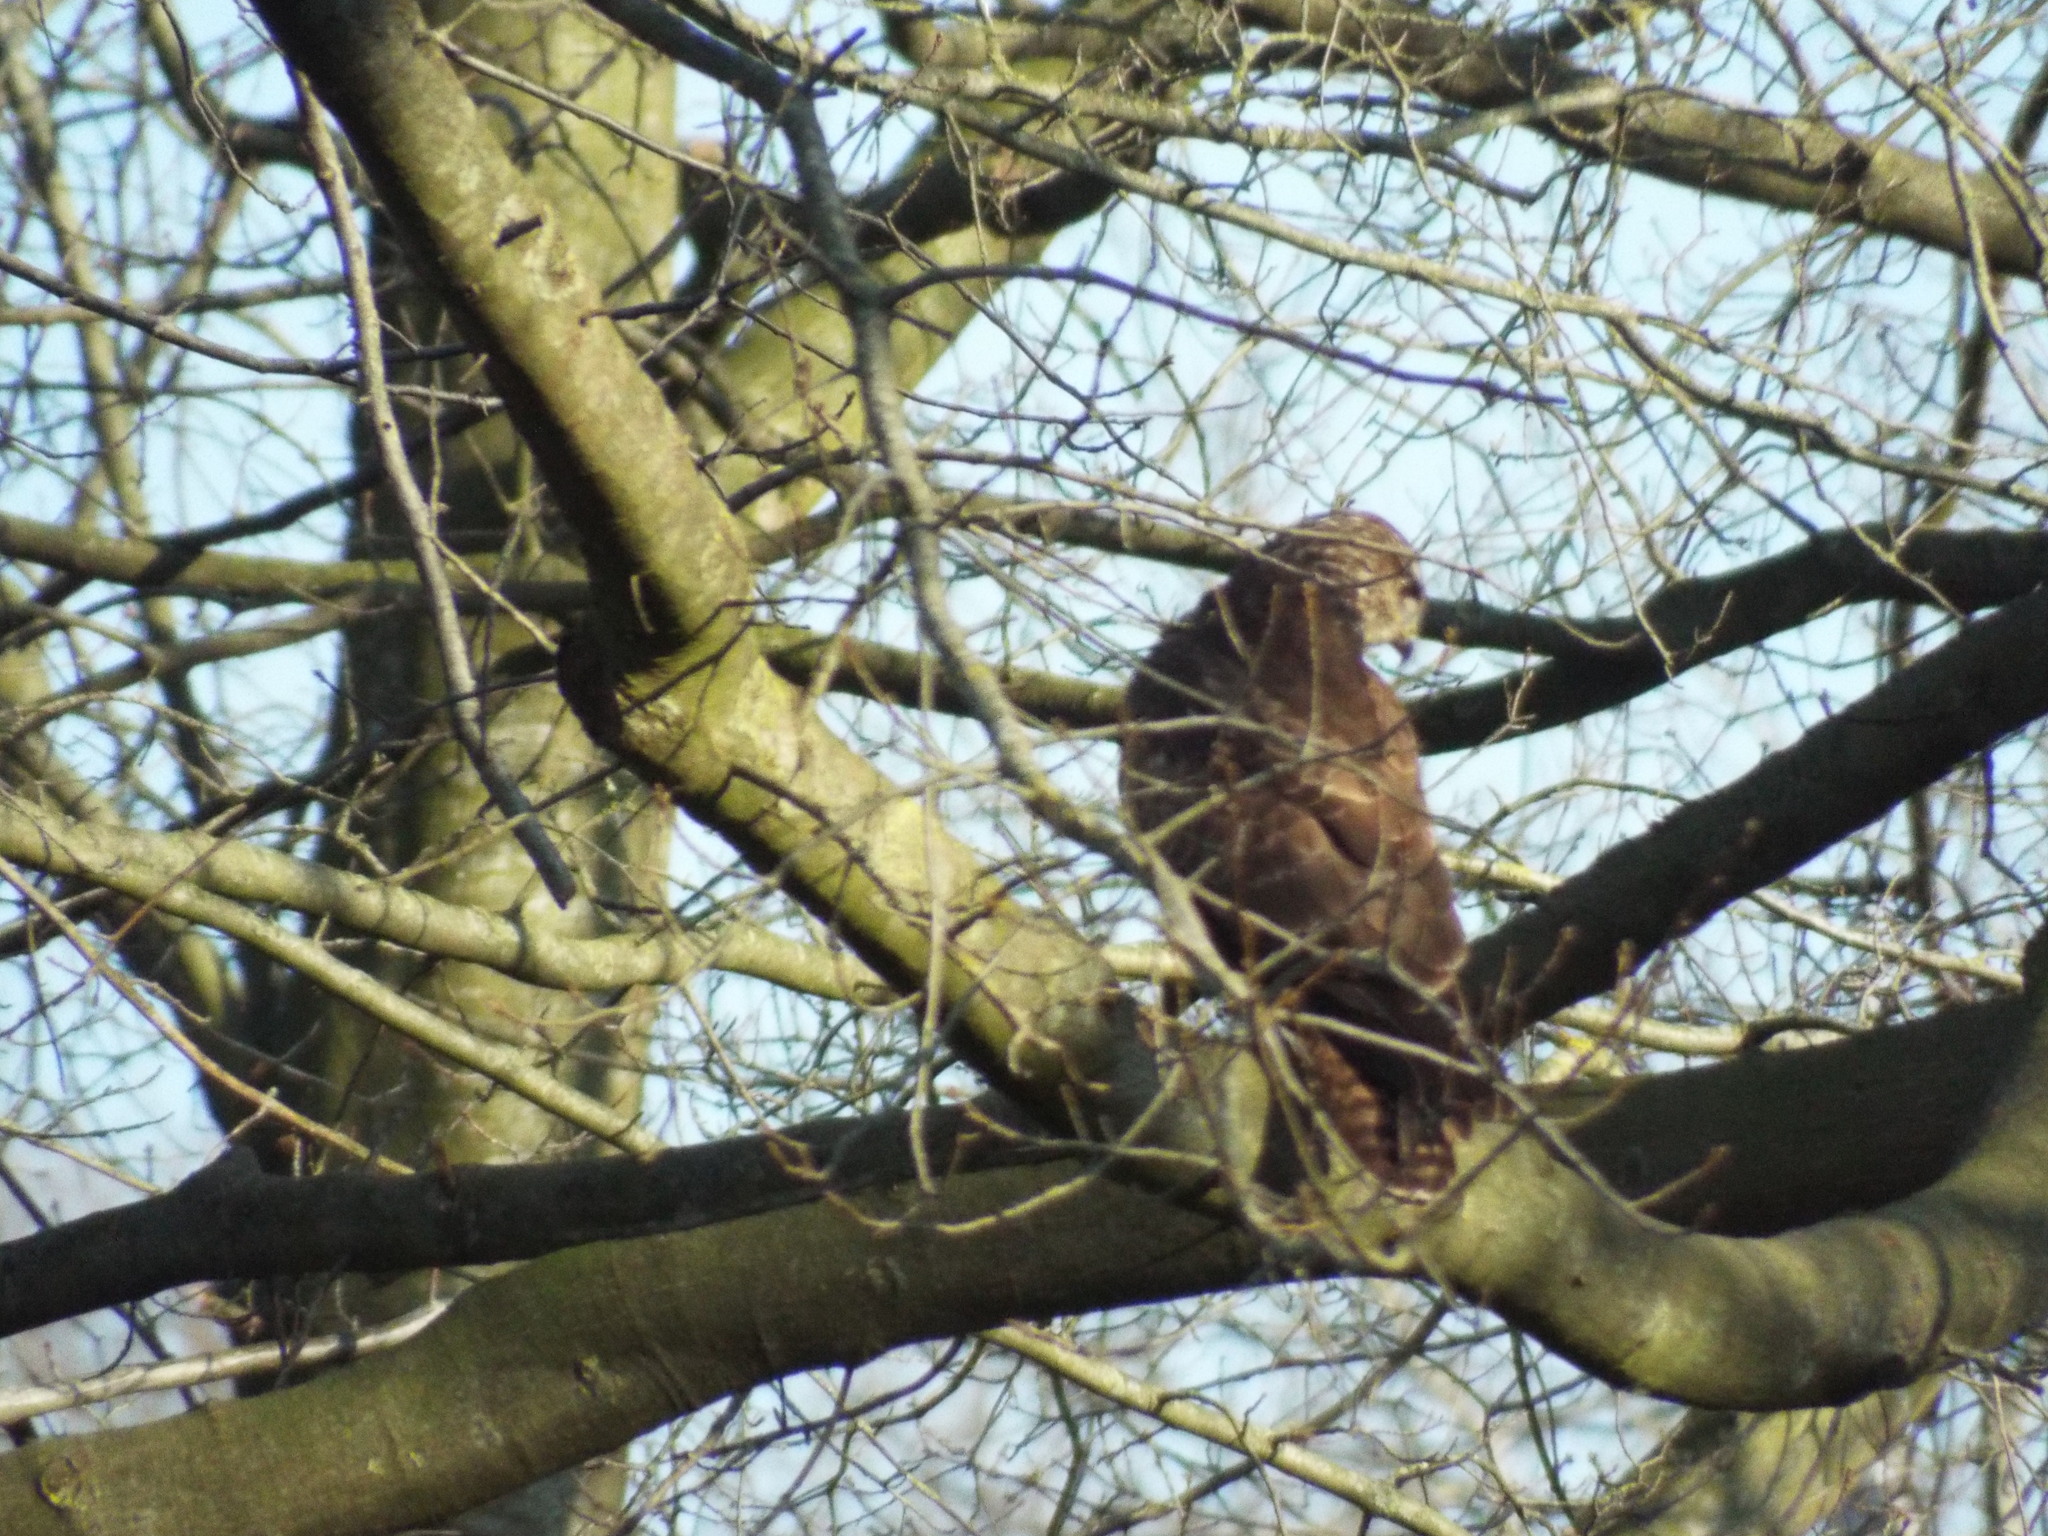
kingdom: Animalia
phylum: Chordata
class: Aves
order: Accipitriformes
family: Accipitridae
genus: Buteo
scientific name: Buteo buteo
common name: Common buzzard
